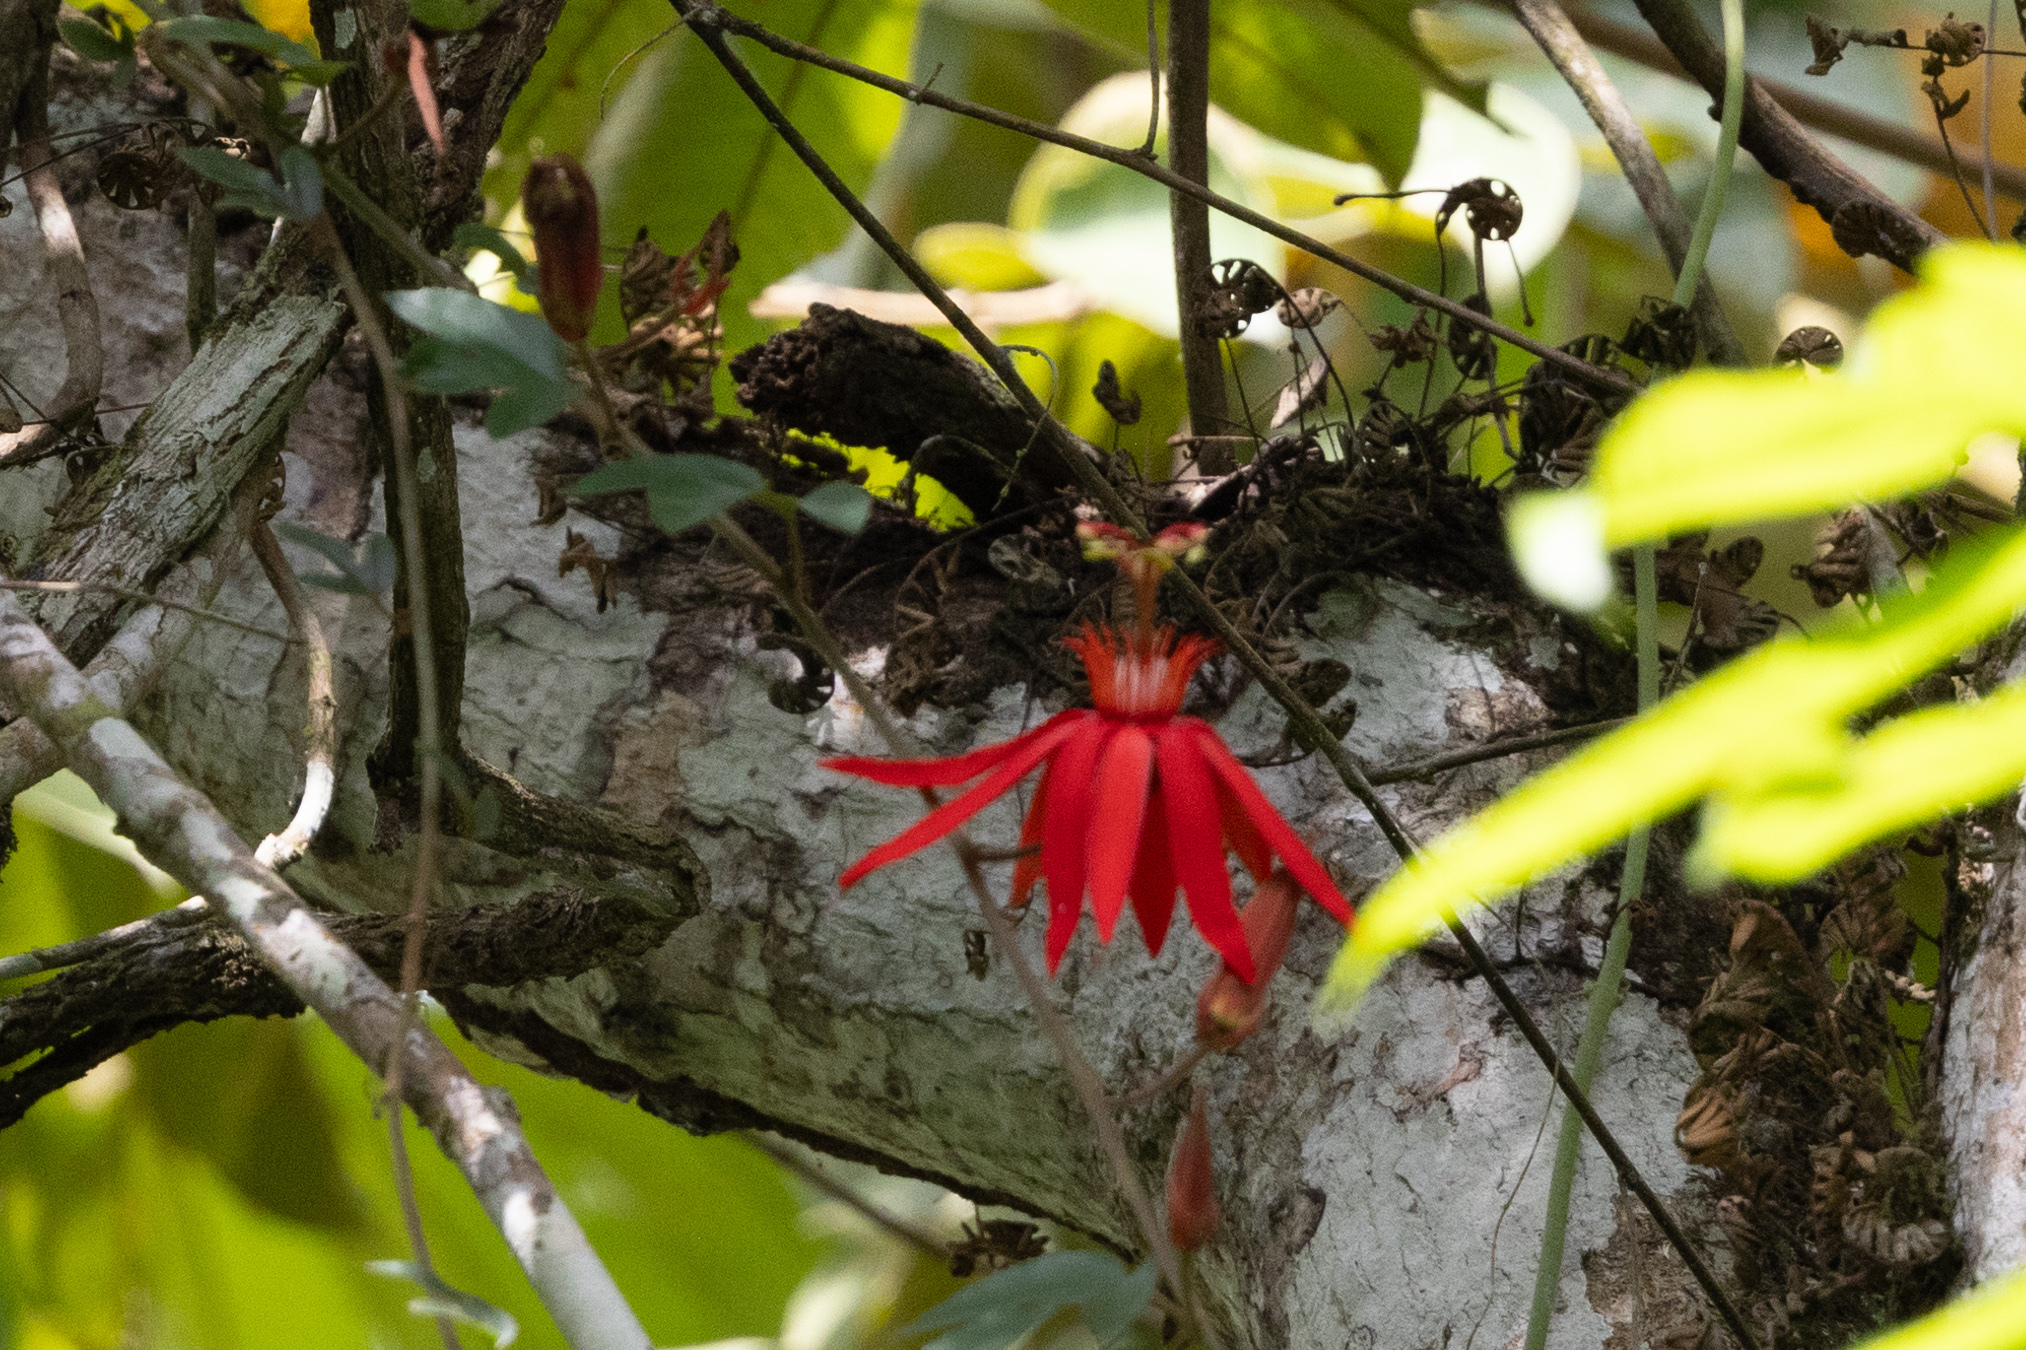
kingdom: Plantae
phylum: Tracheophyta
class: Magnoliopsida
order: Malpighiales
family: Passifloraceae
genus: Passiflora
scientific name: Passiflora vitifolia
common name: Perfumed passionflower
